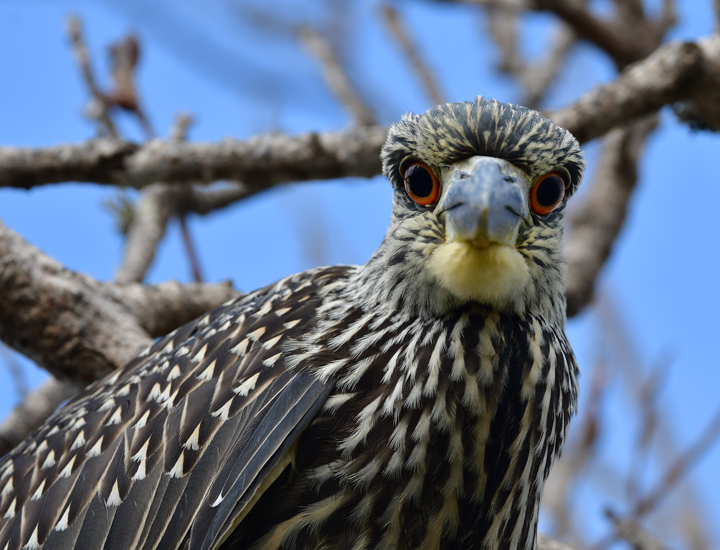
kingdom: Animalia
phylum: Chordata
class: Aves
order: Pelecaniformes
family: Ardeidae
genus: Nyctanassa
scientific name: Nyctanassa violacea
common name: Yellow-crowned night heron
